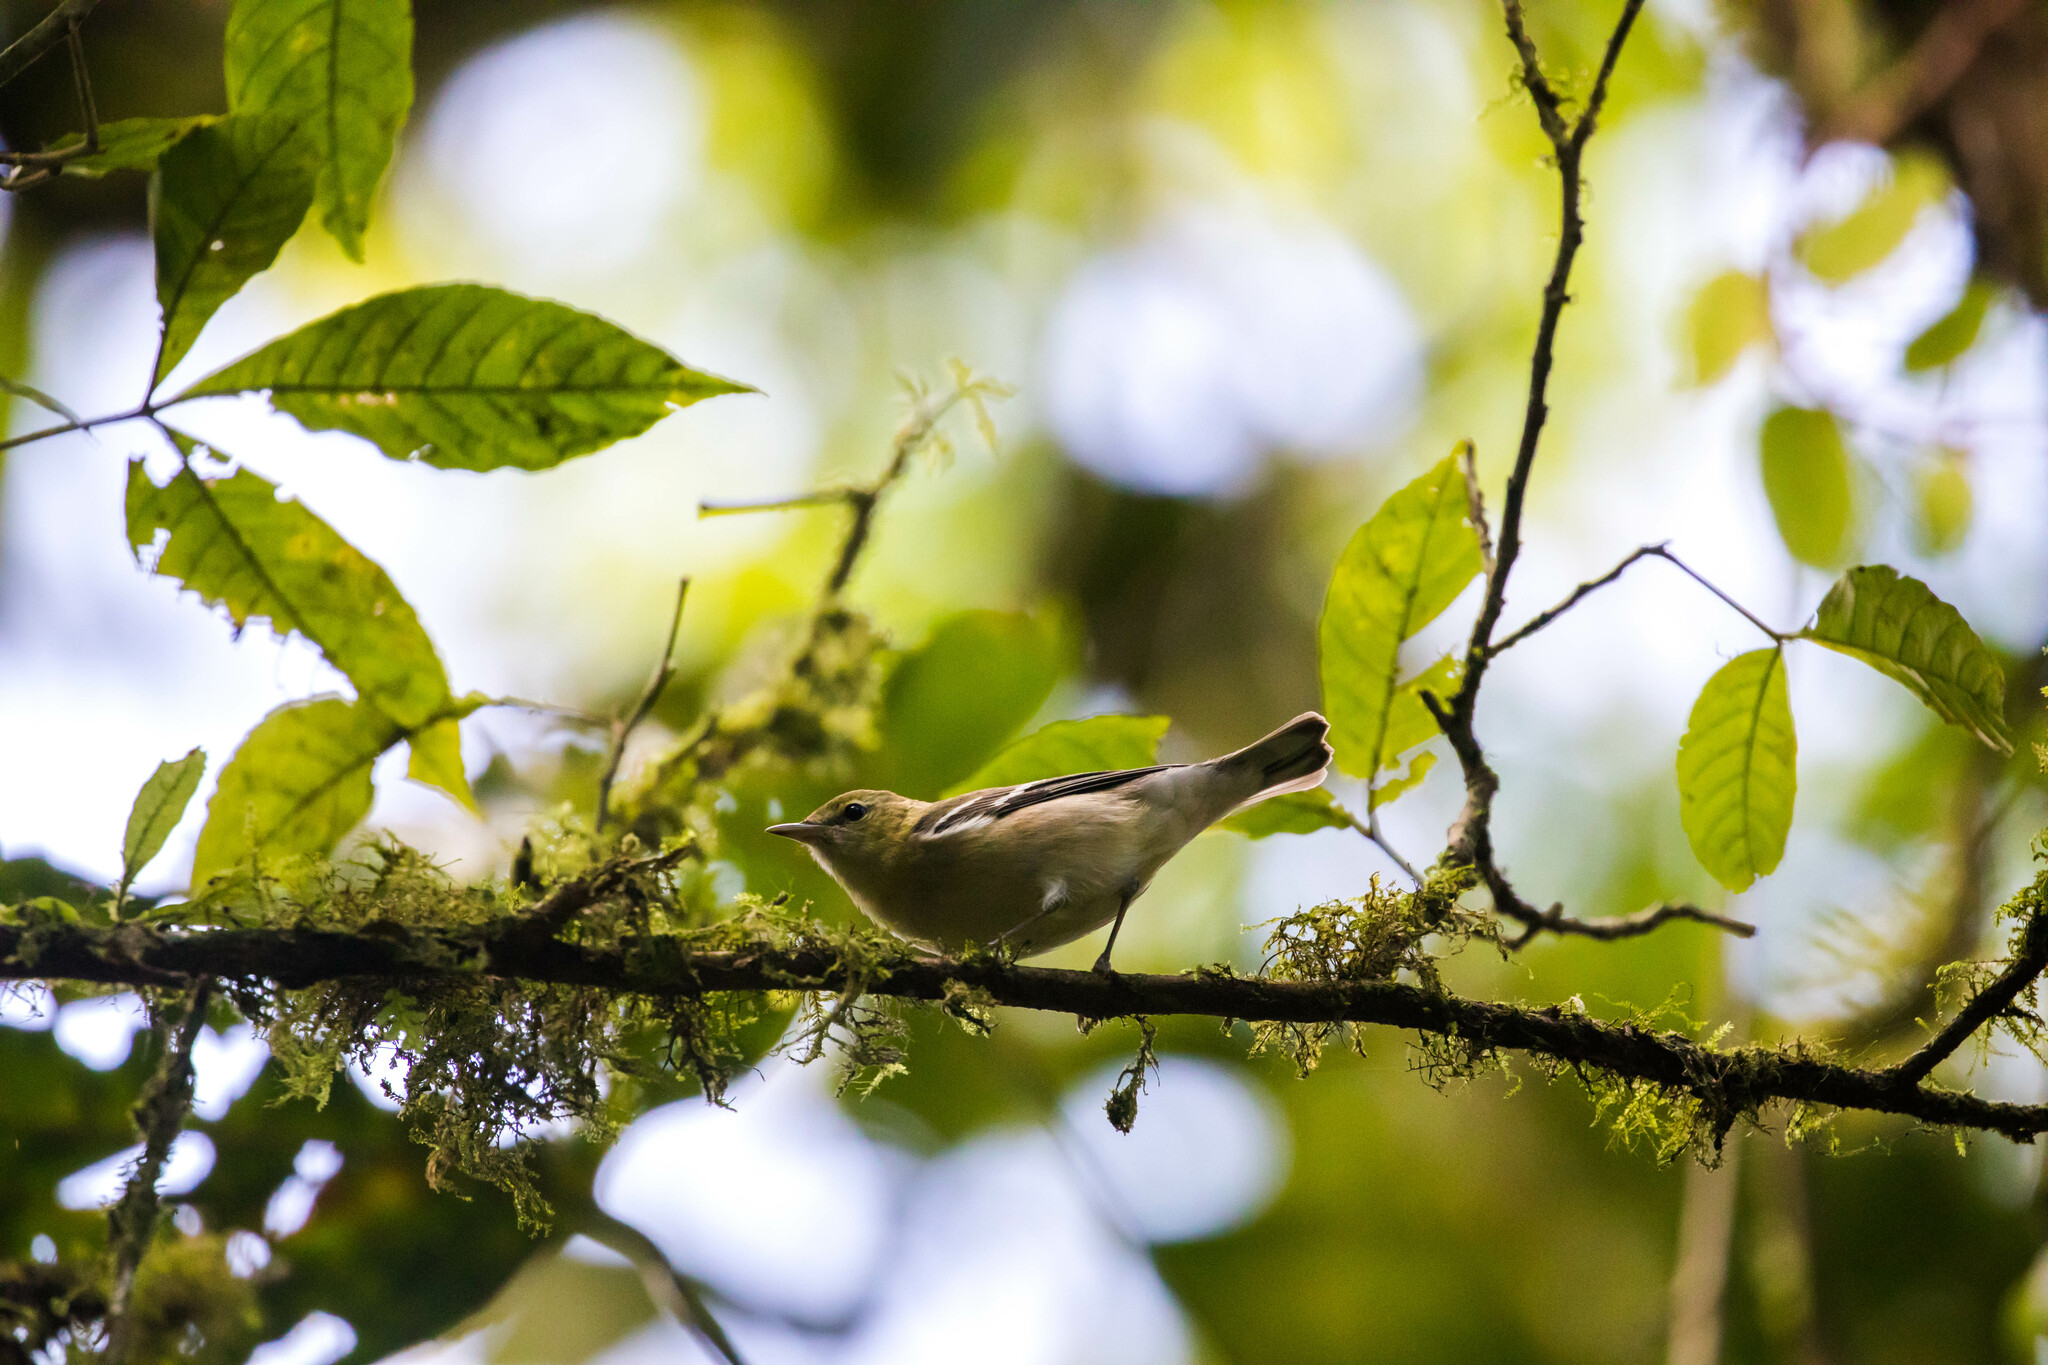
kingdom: Animalia
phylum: Chordata
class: Aves
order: Passeriformes
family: Parulidae
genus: Setophaga
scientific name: Setophaga castanea
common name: Bay-breasted warbler
